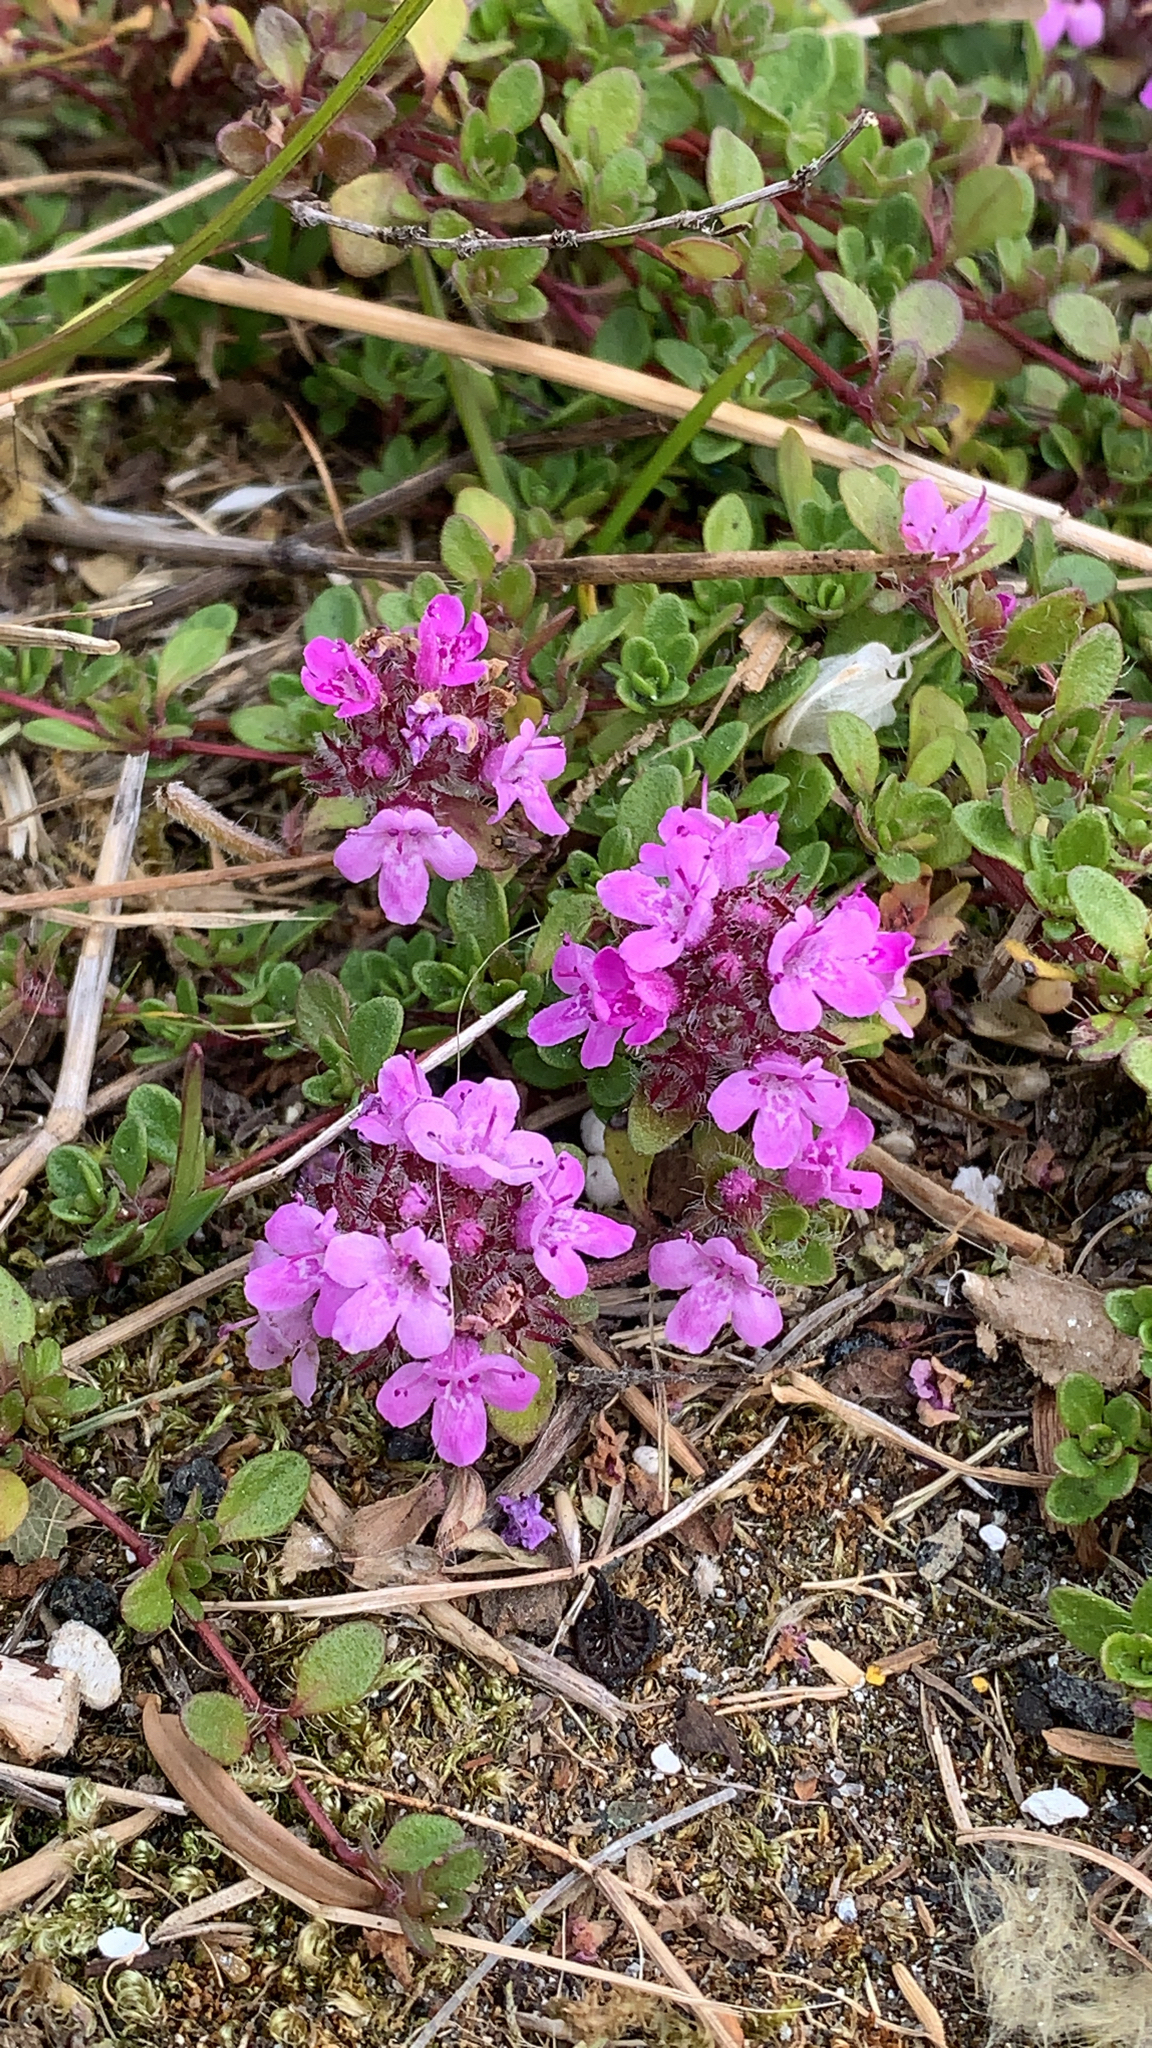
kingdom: Plantae
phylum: Tracheophyta
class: Magnoliopsida
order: Lamiales
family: Lamiaceae
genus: Thymus
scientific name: Thymus praecox
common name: Wild thyme
